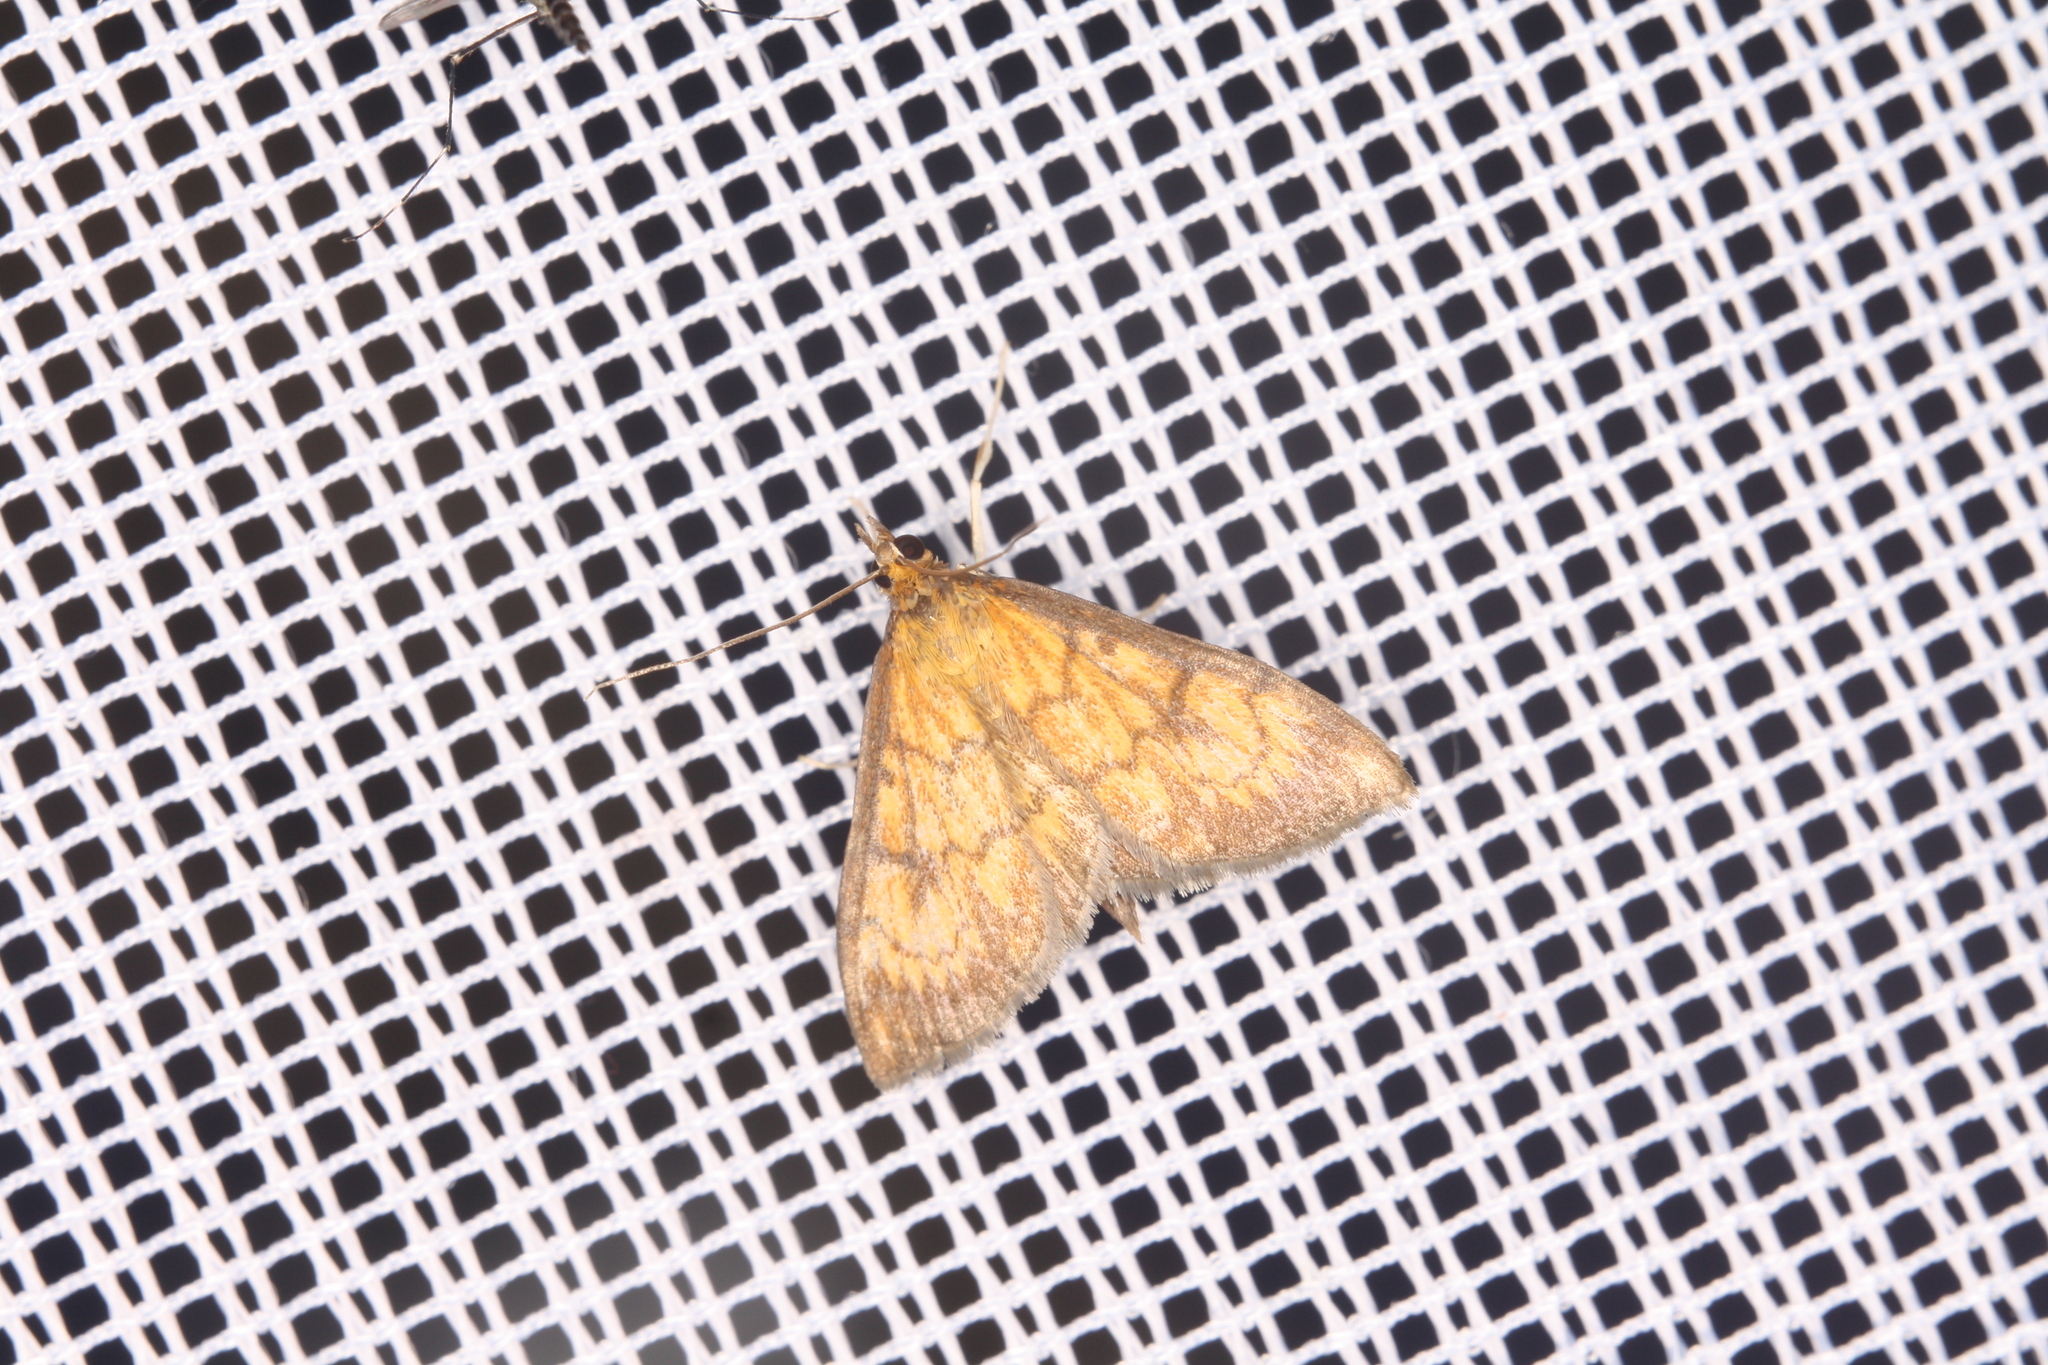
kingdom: Animalia
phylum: Arthropoda
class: Insecta
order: Lepidoptera
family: Crambidae
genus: Ecpyrrhorrhoe
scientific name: Ecpyrrhorrhoe rubiginalis
